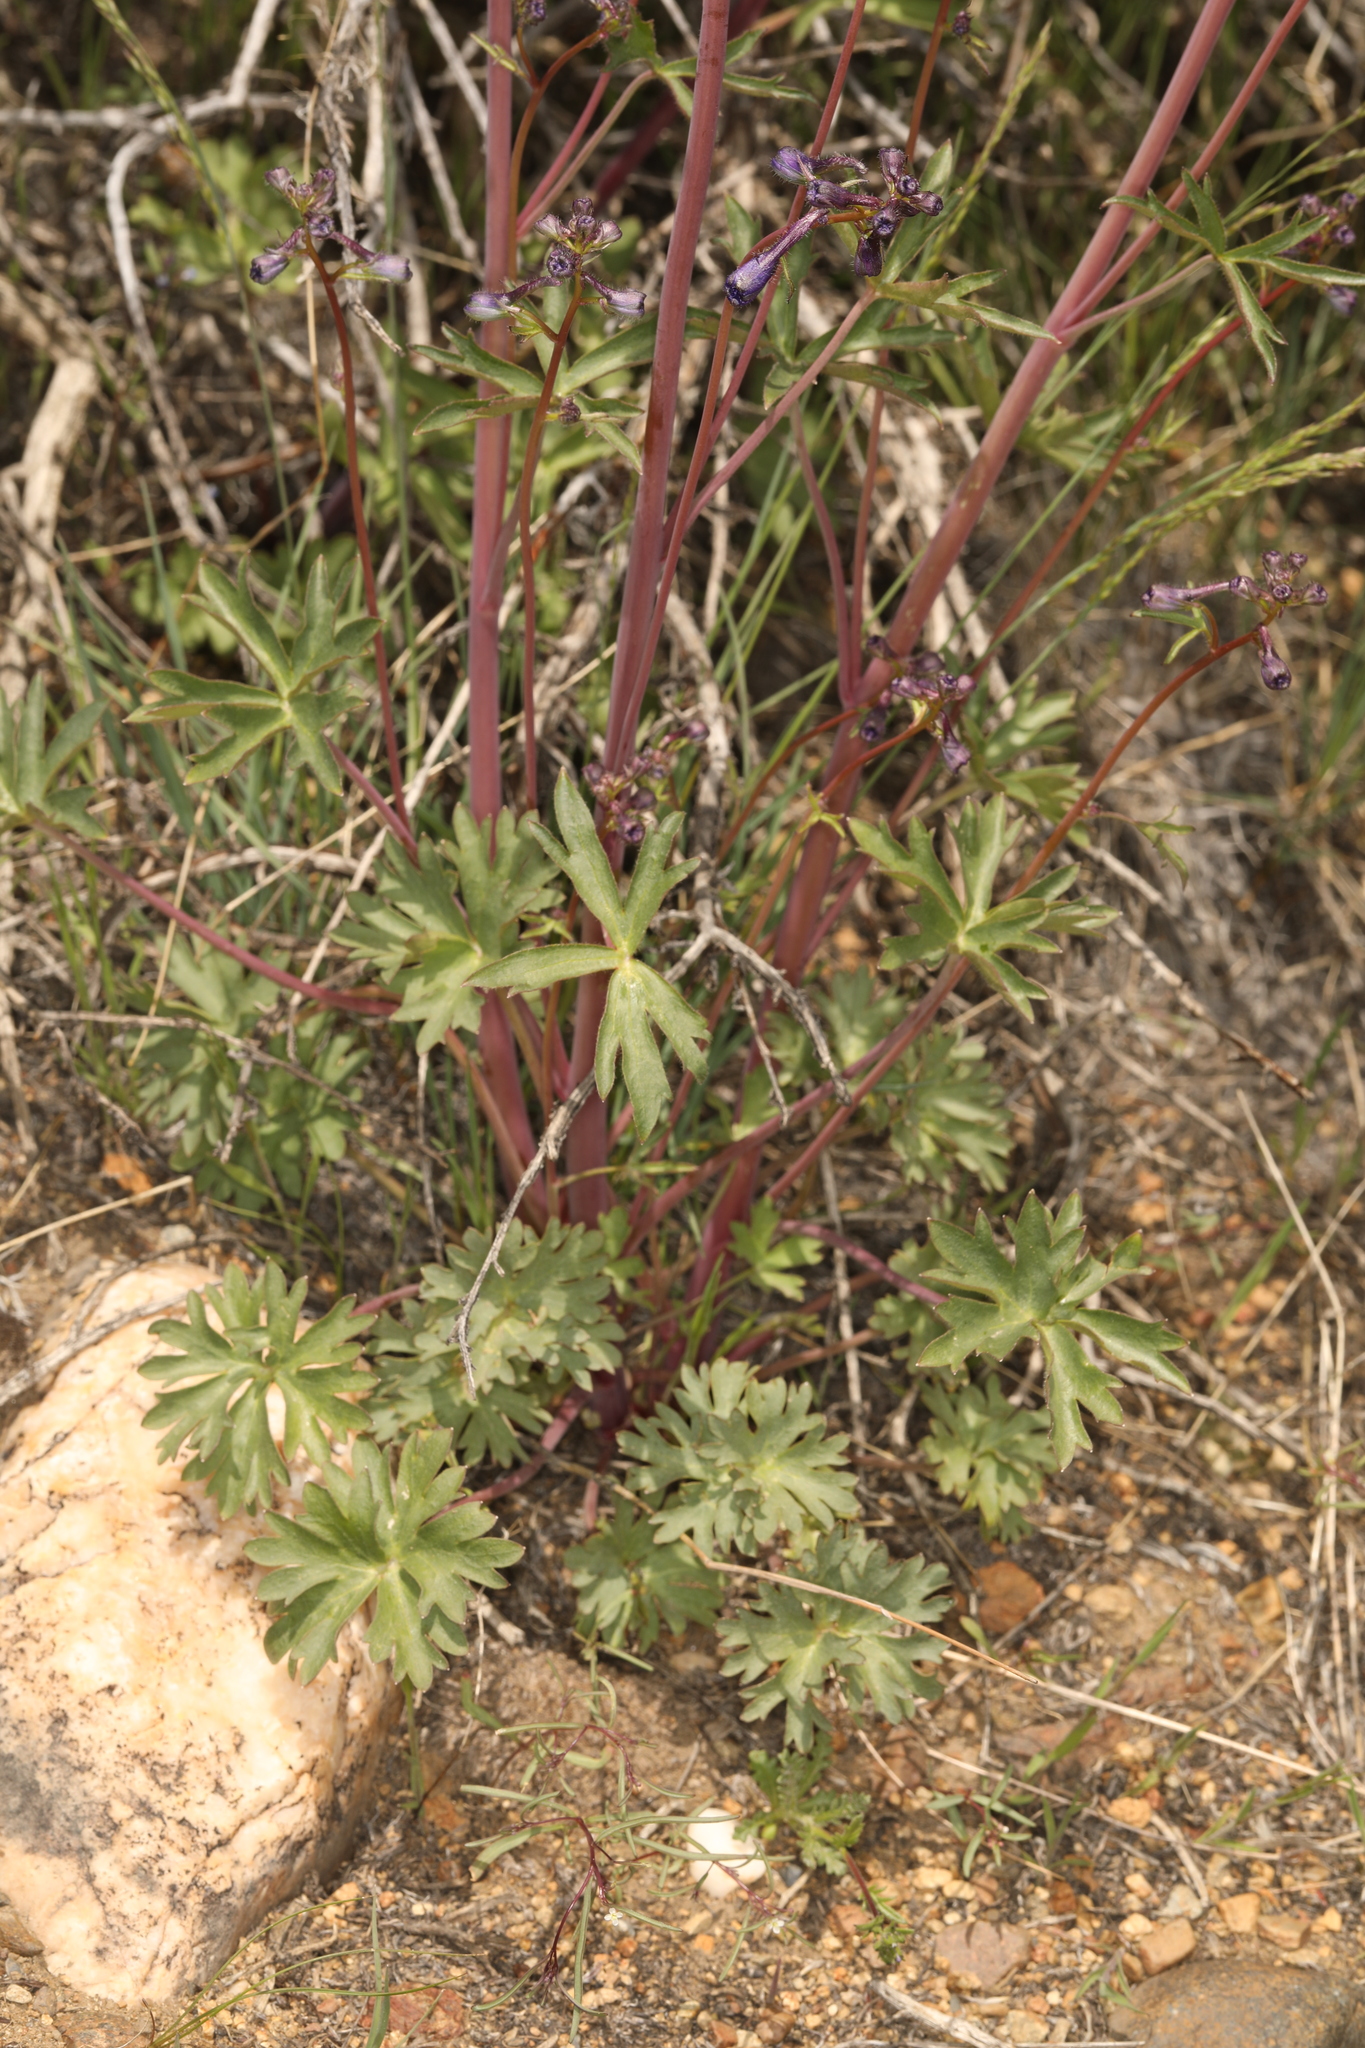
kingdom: Plantae
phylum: Tracheophyta
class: Magnoliopsida
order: Ranunculales
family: Ranunculaceae
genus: Delphinium
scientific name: Delphinium andersonii
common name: Anderson's larkspur
